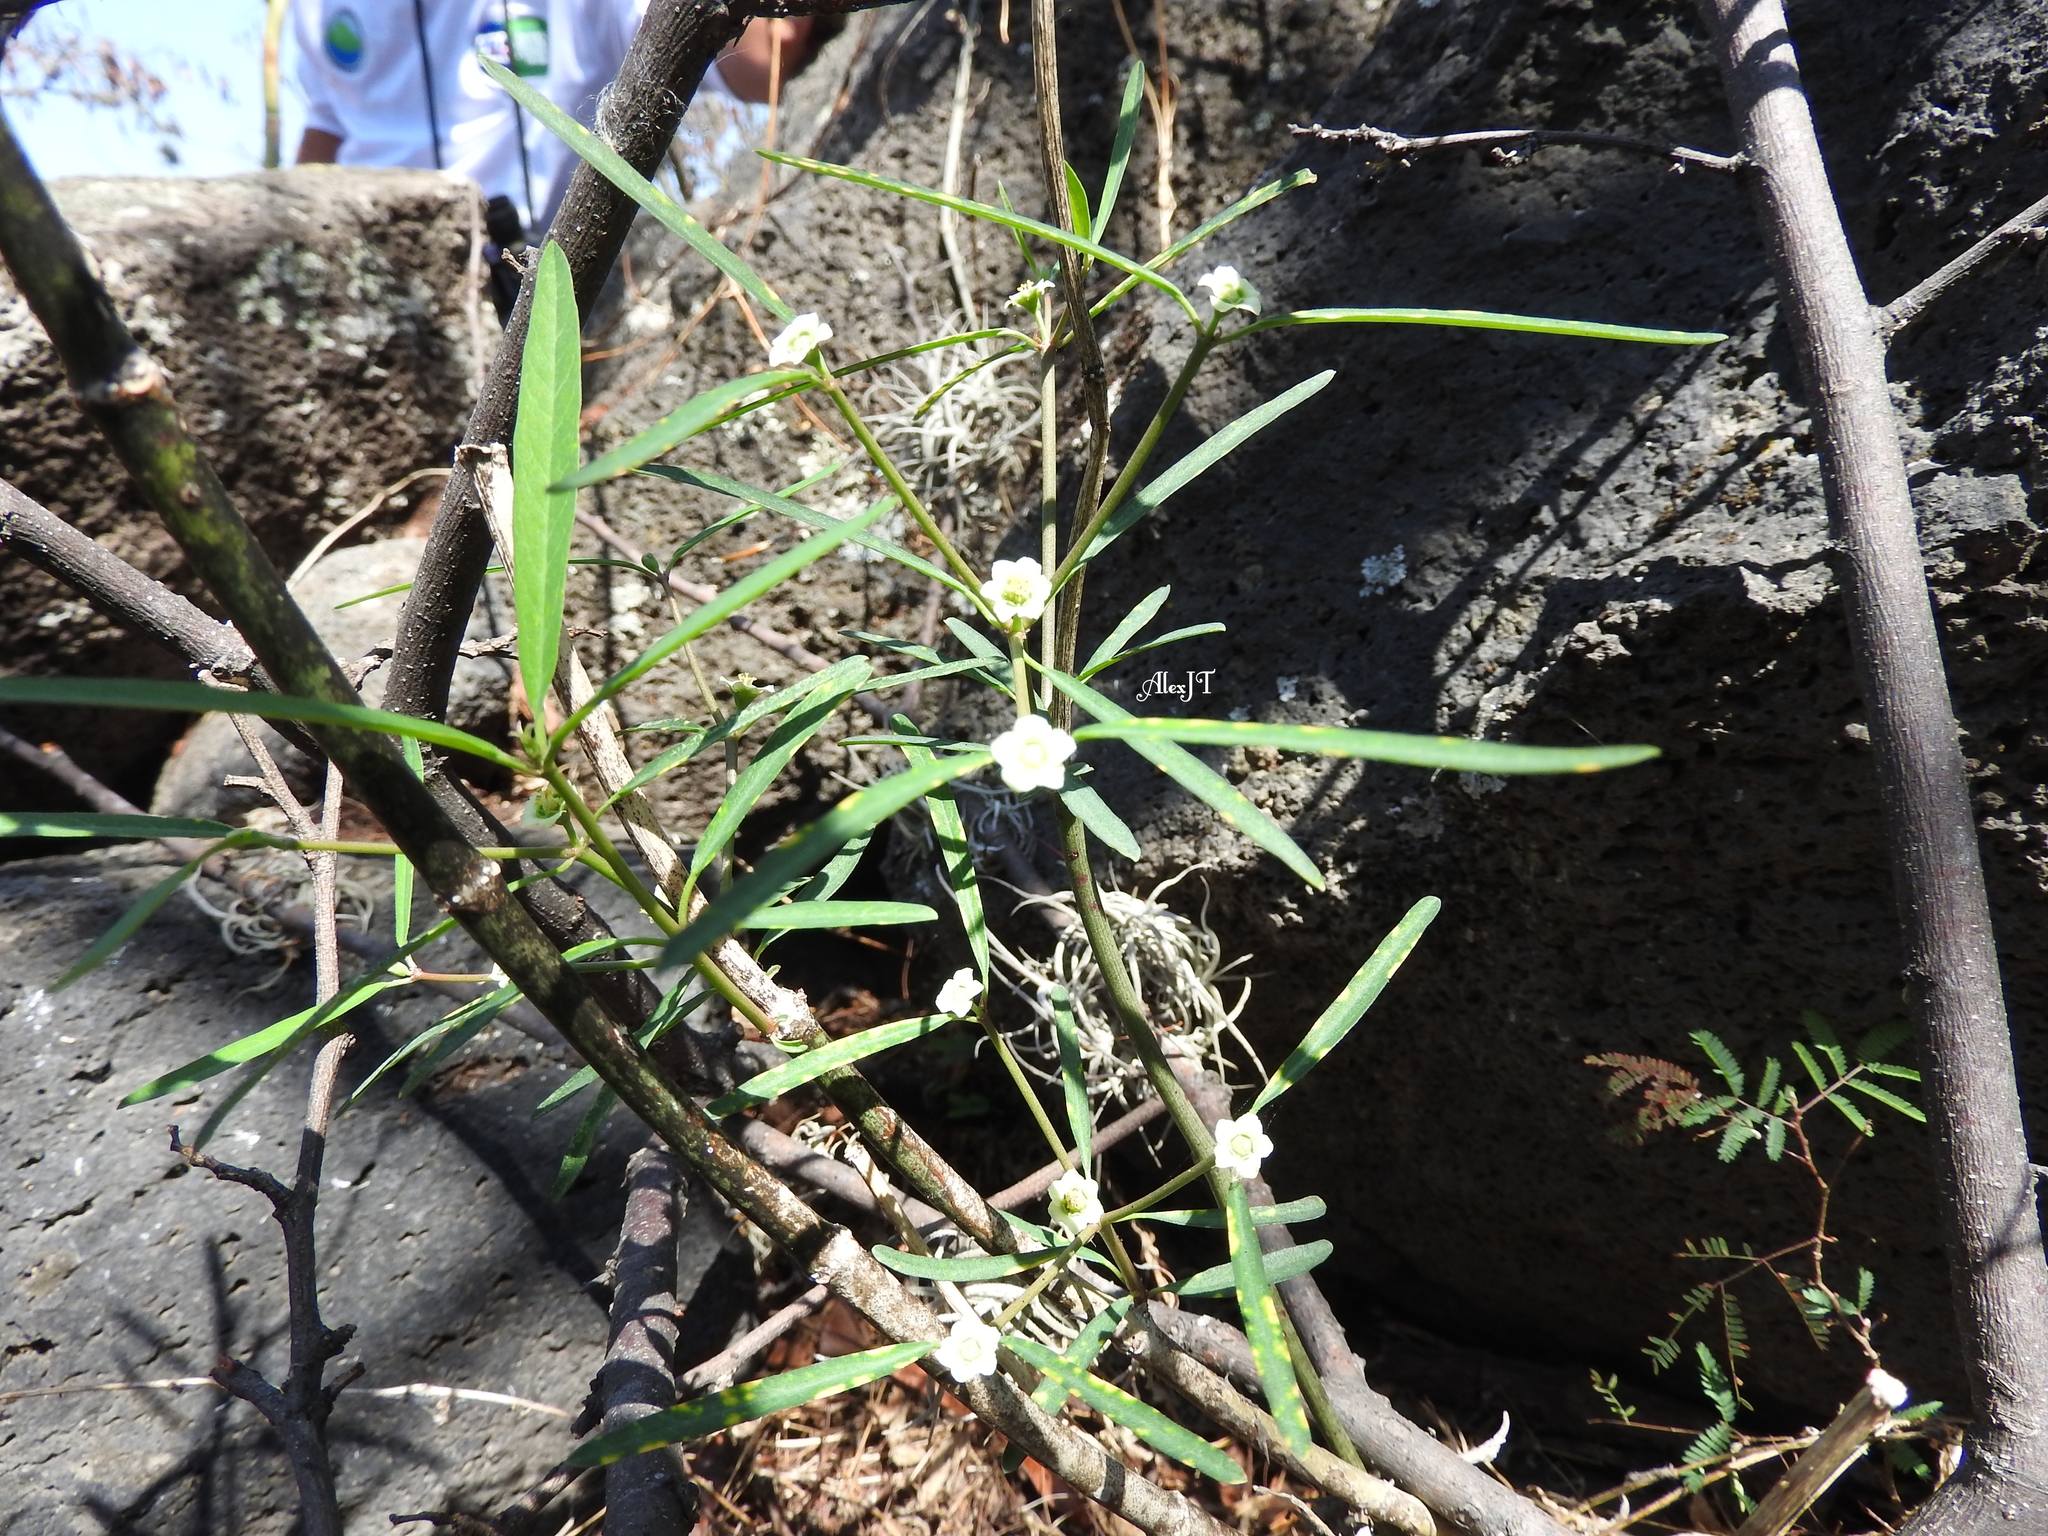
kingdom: Plantae
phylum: Tracheophyta
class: Magnoliopsida
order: Malpighiales
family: Euphorbiaceae
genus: Euphorbia
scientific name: Euphorbia cymosa
